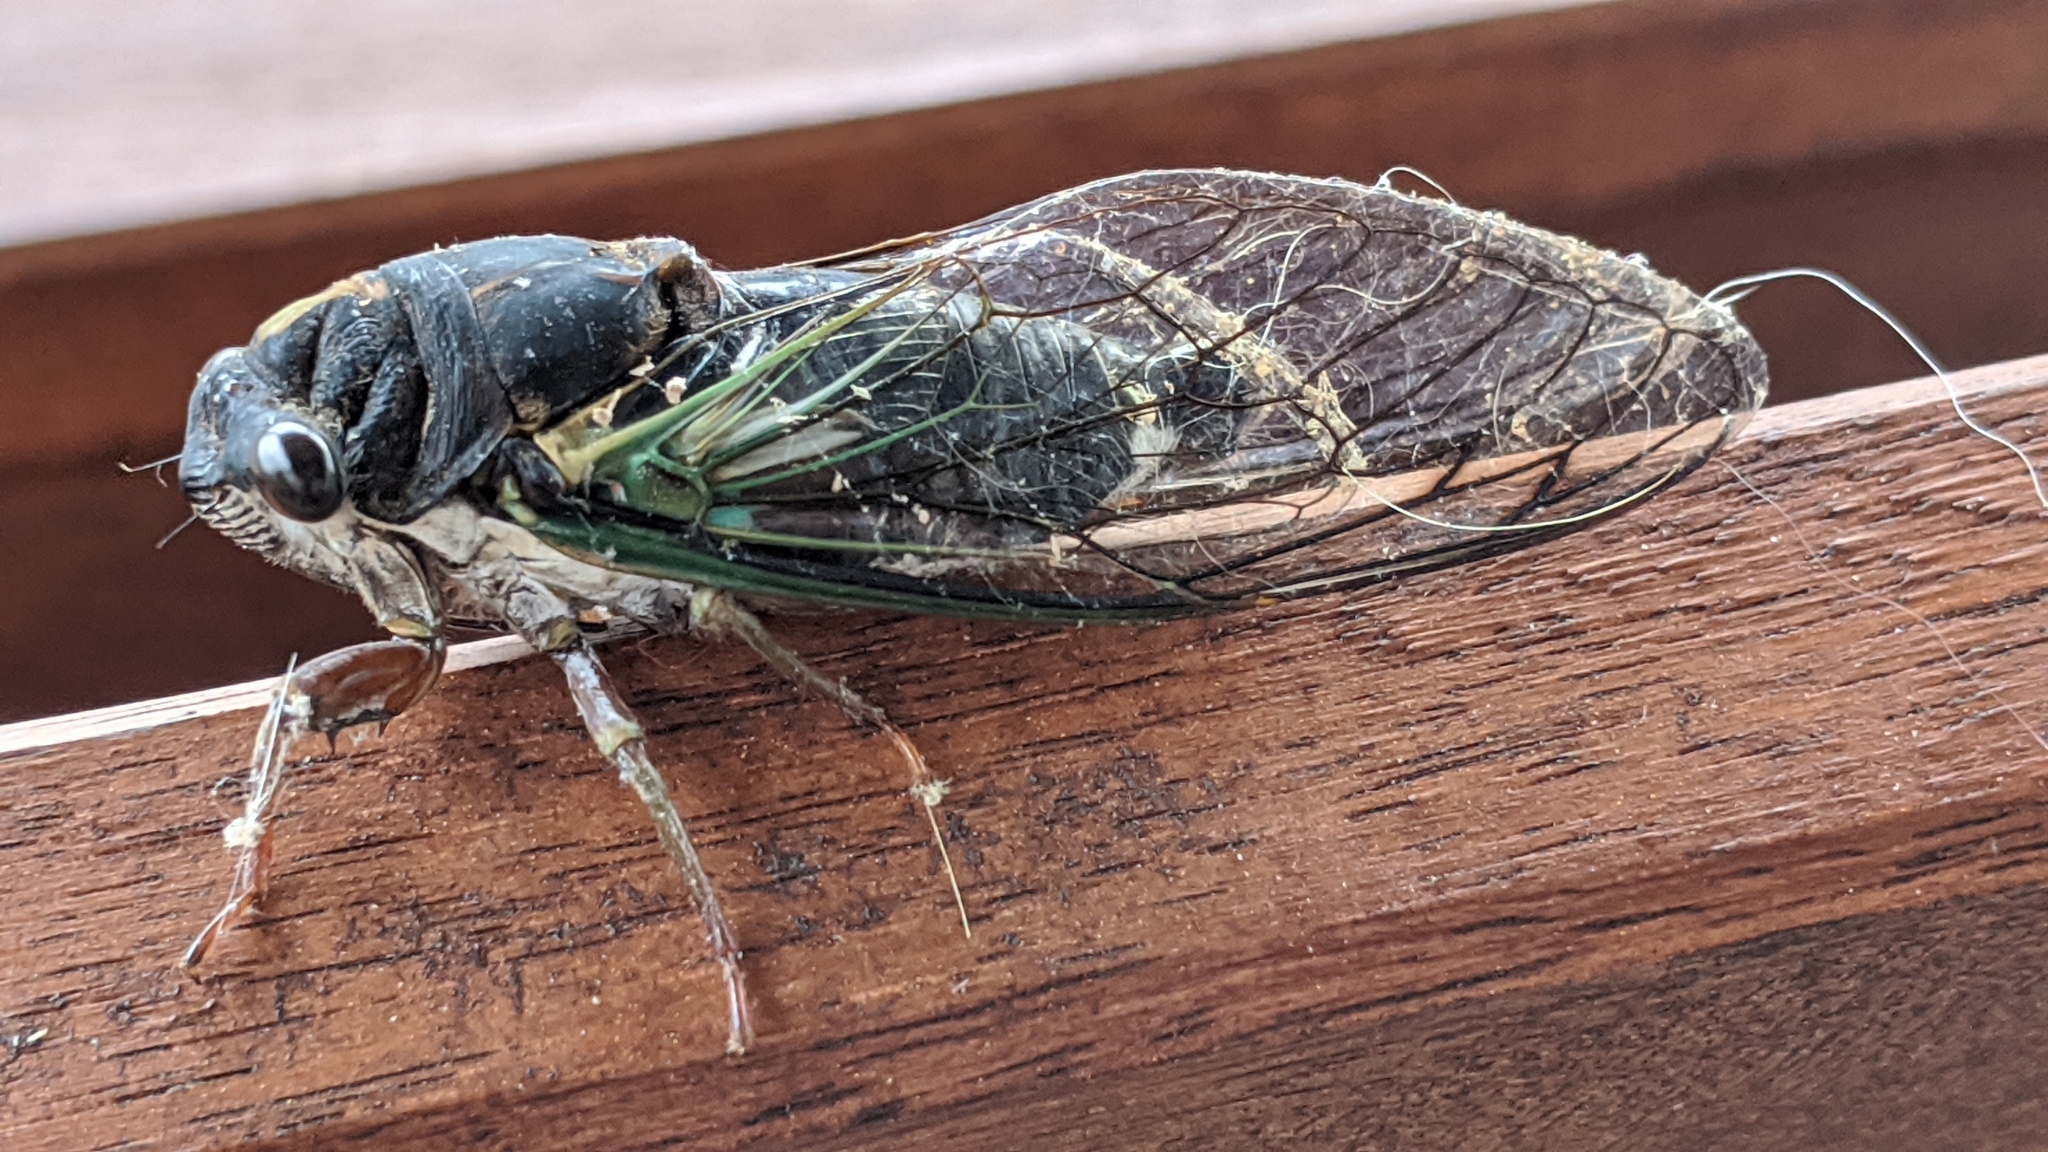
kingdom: Animalia
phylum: Arthropoda
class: Insecta
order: Hemiptera
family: Cicadidae
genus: Neotibicen
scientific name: Neotibicen lyricen
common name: Lyric cicada
